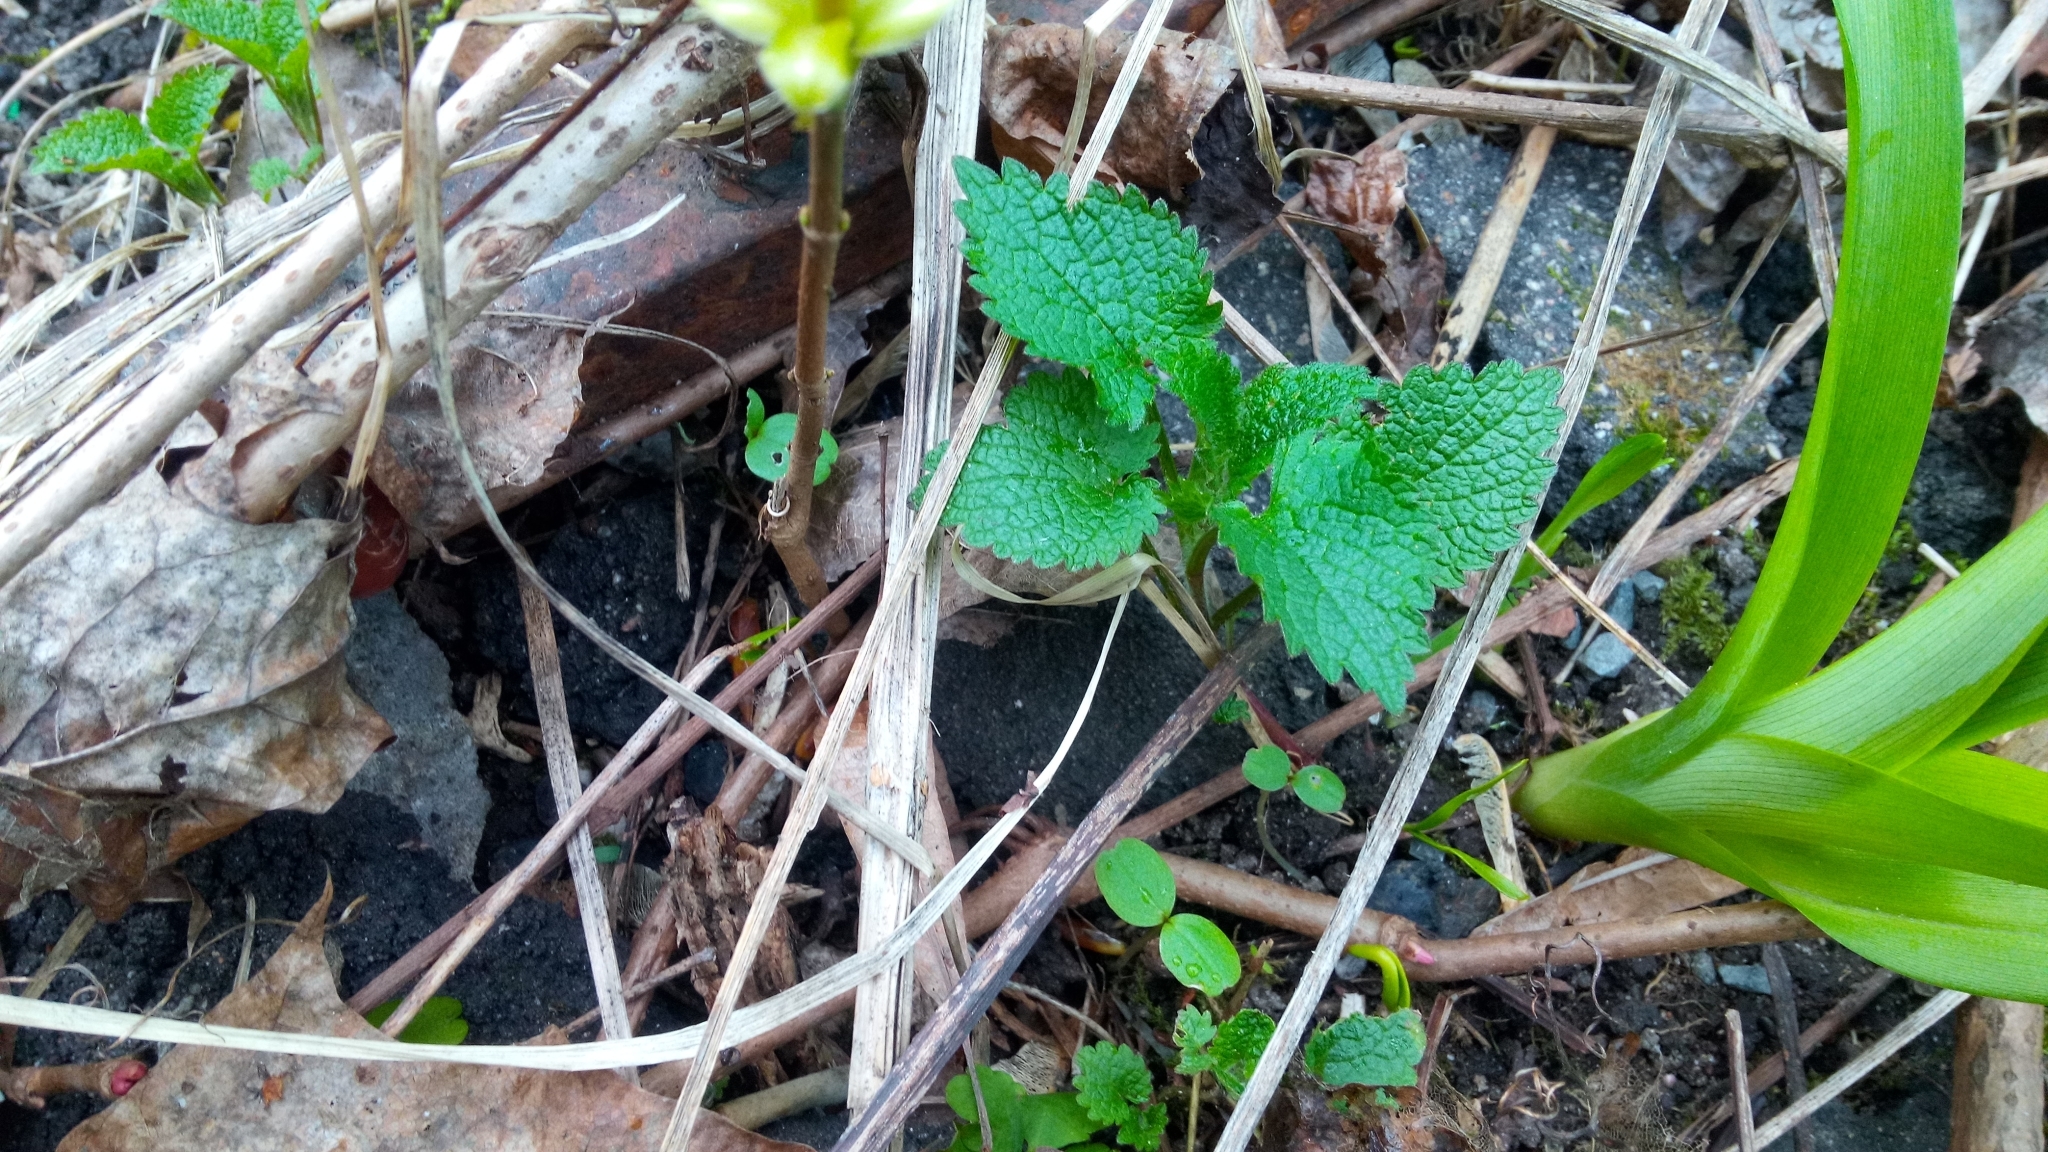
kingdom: Plantae
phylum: Tracheophyta
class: Magnoliopsida
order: Lamiales
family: Lamiaceae
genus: Lamium
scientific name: Lamium album
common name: White dead-nettle
